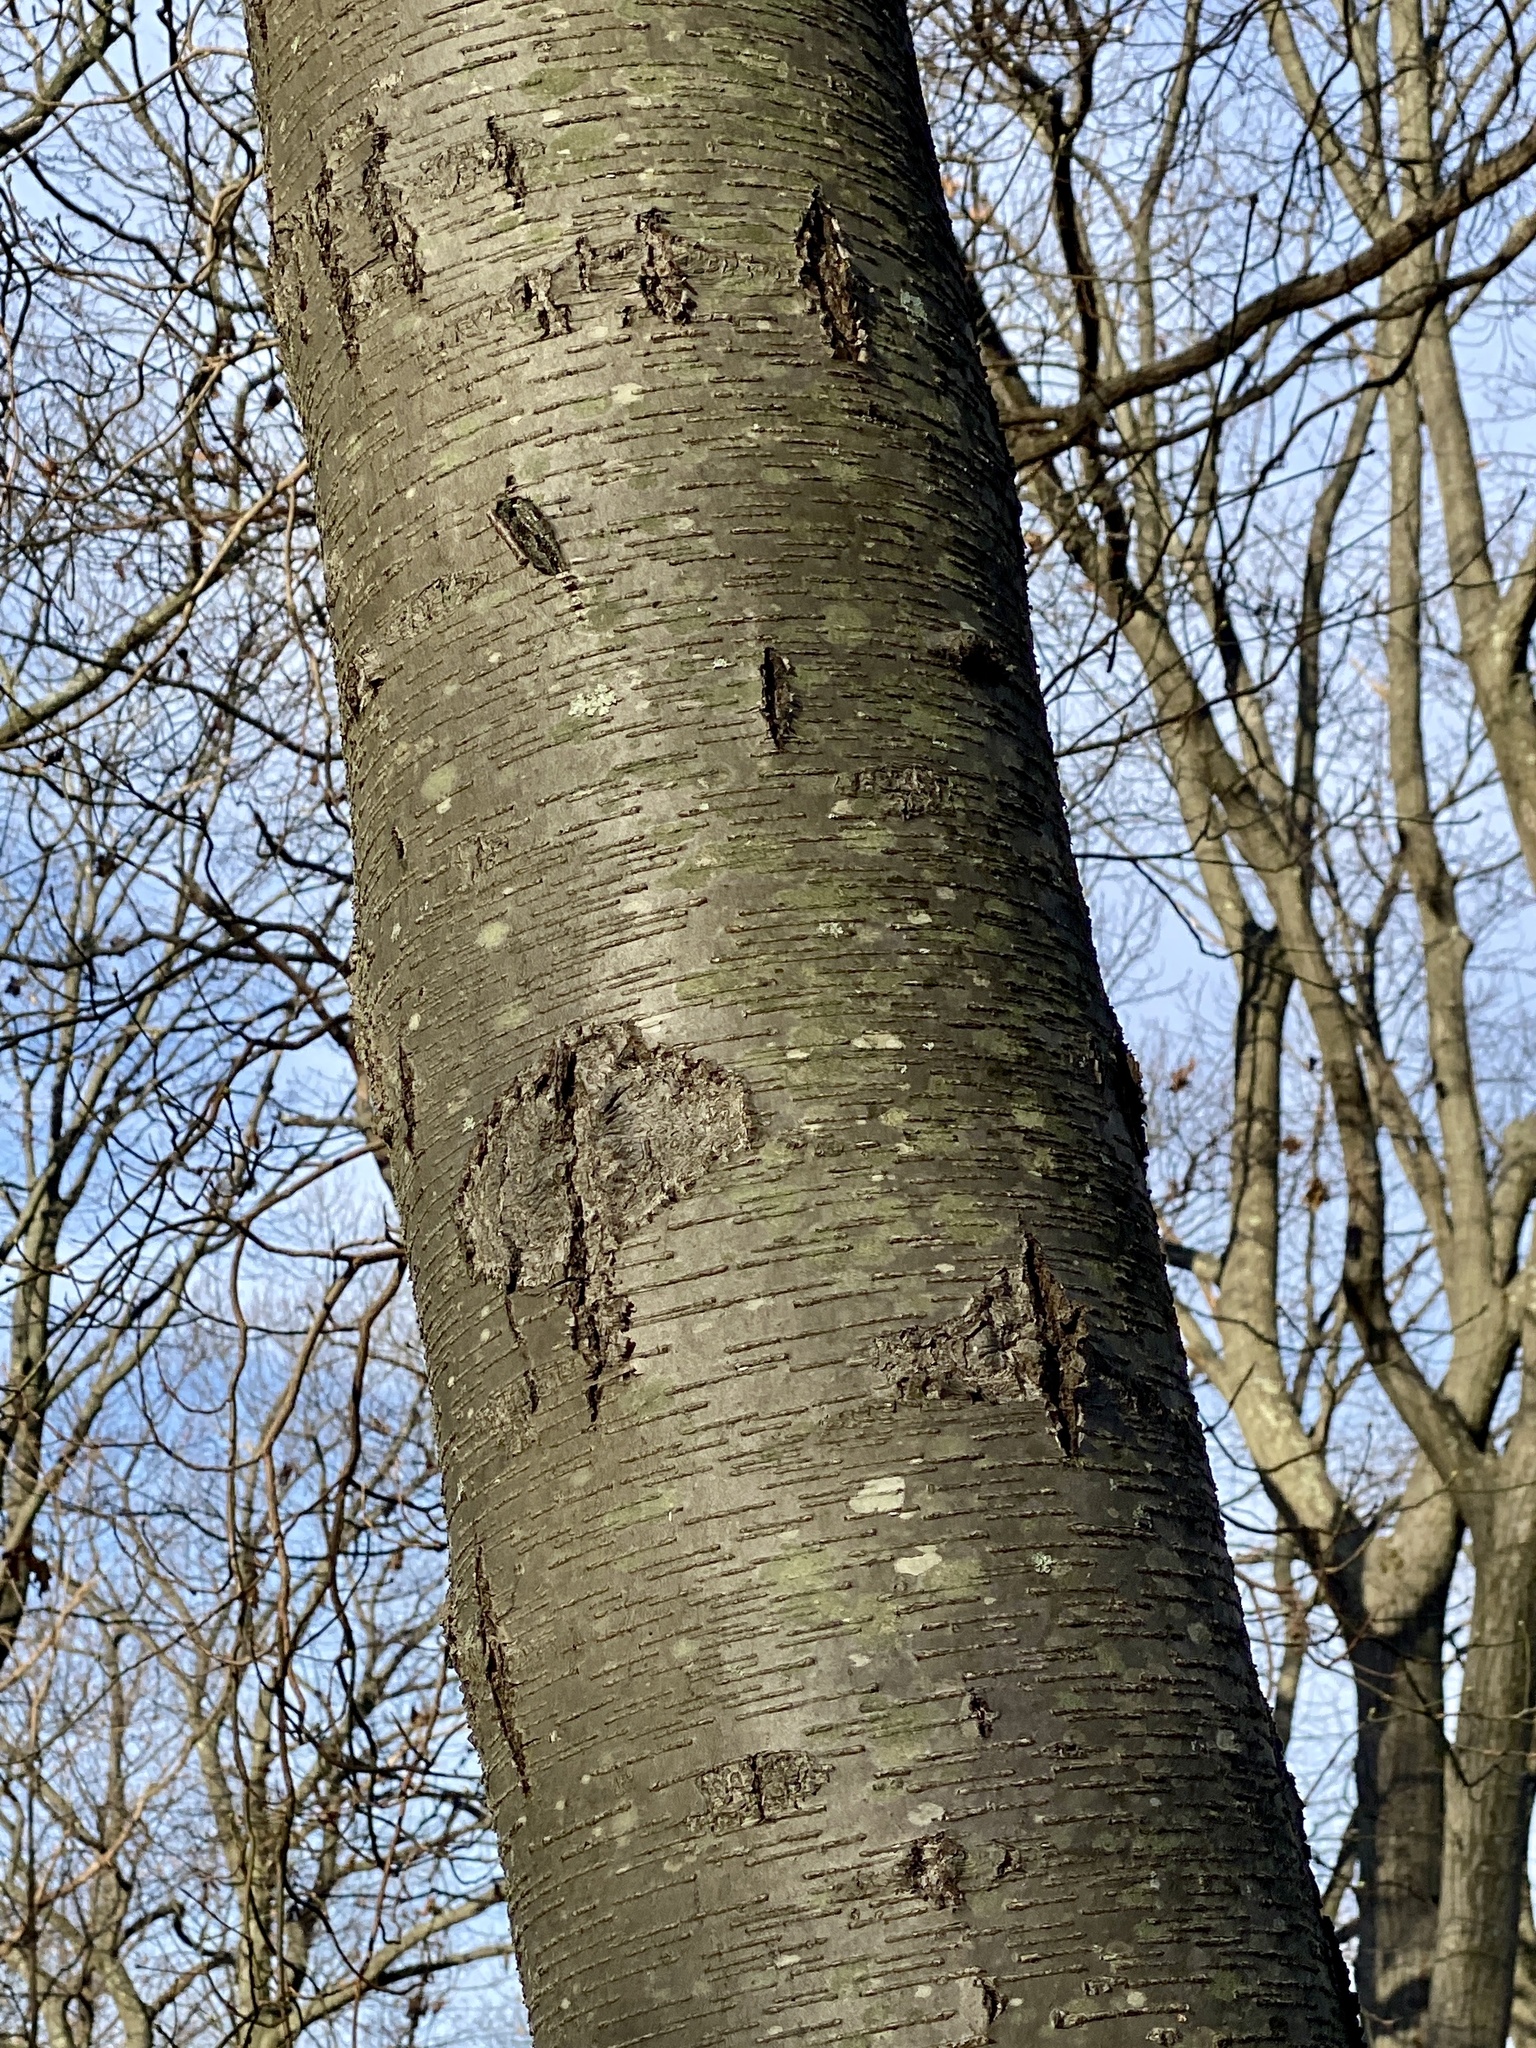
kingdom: Plantae
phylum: Tracheophyta
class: Magnoliopsida
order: Fagales
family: Betulaceae
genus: Betula
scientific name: Betula lenta
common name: Black birch
